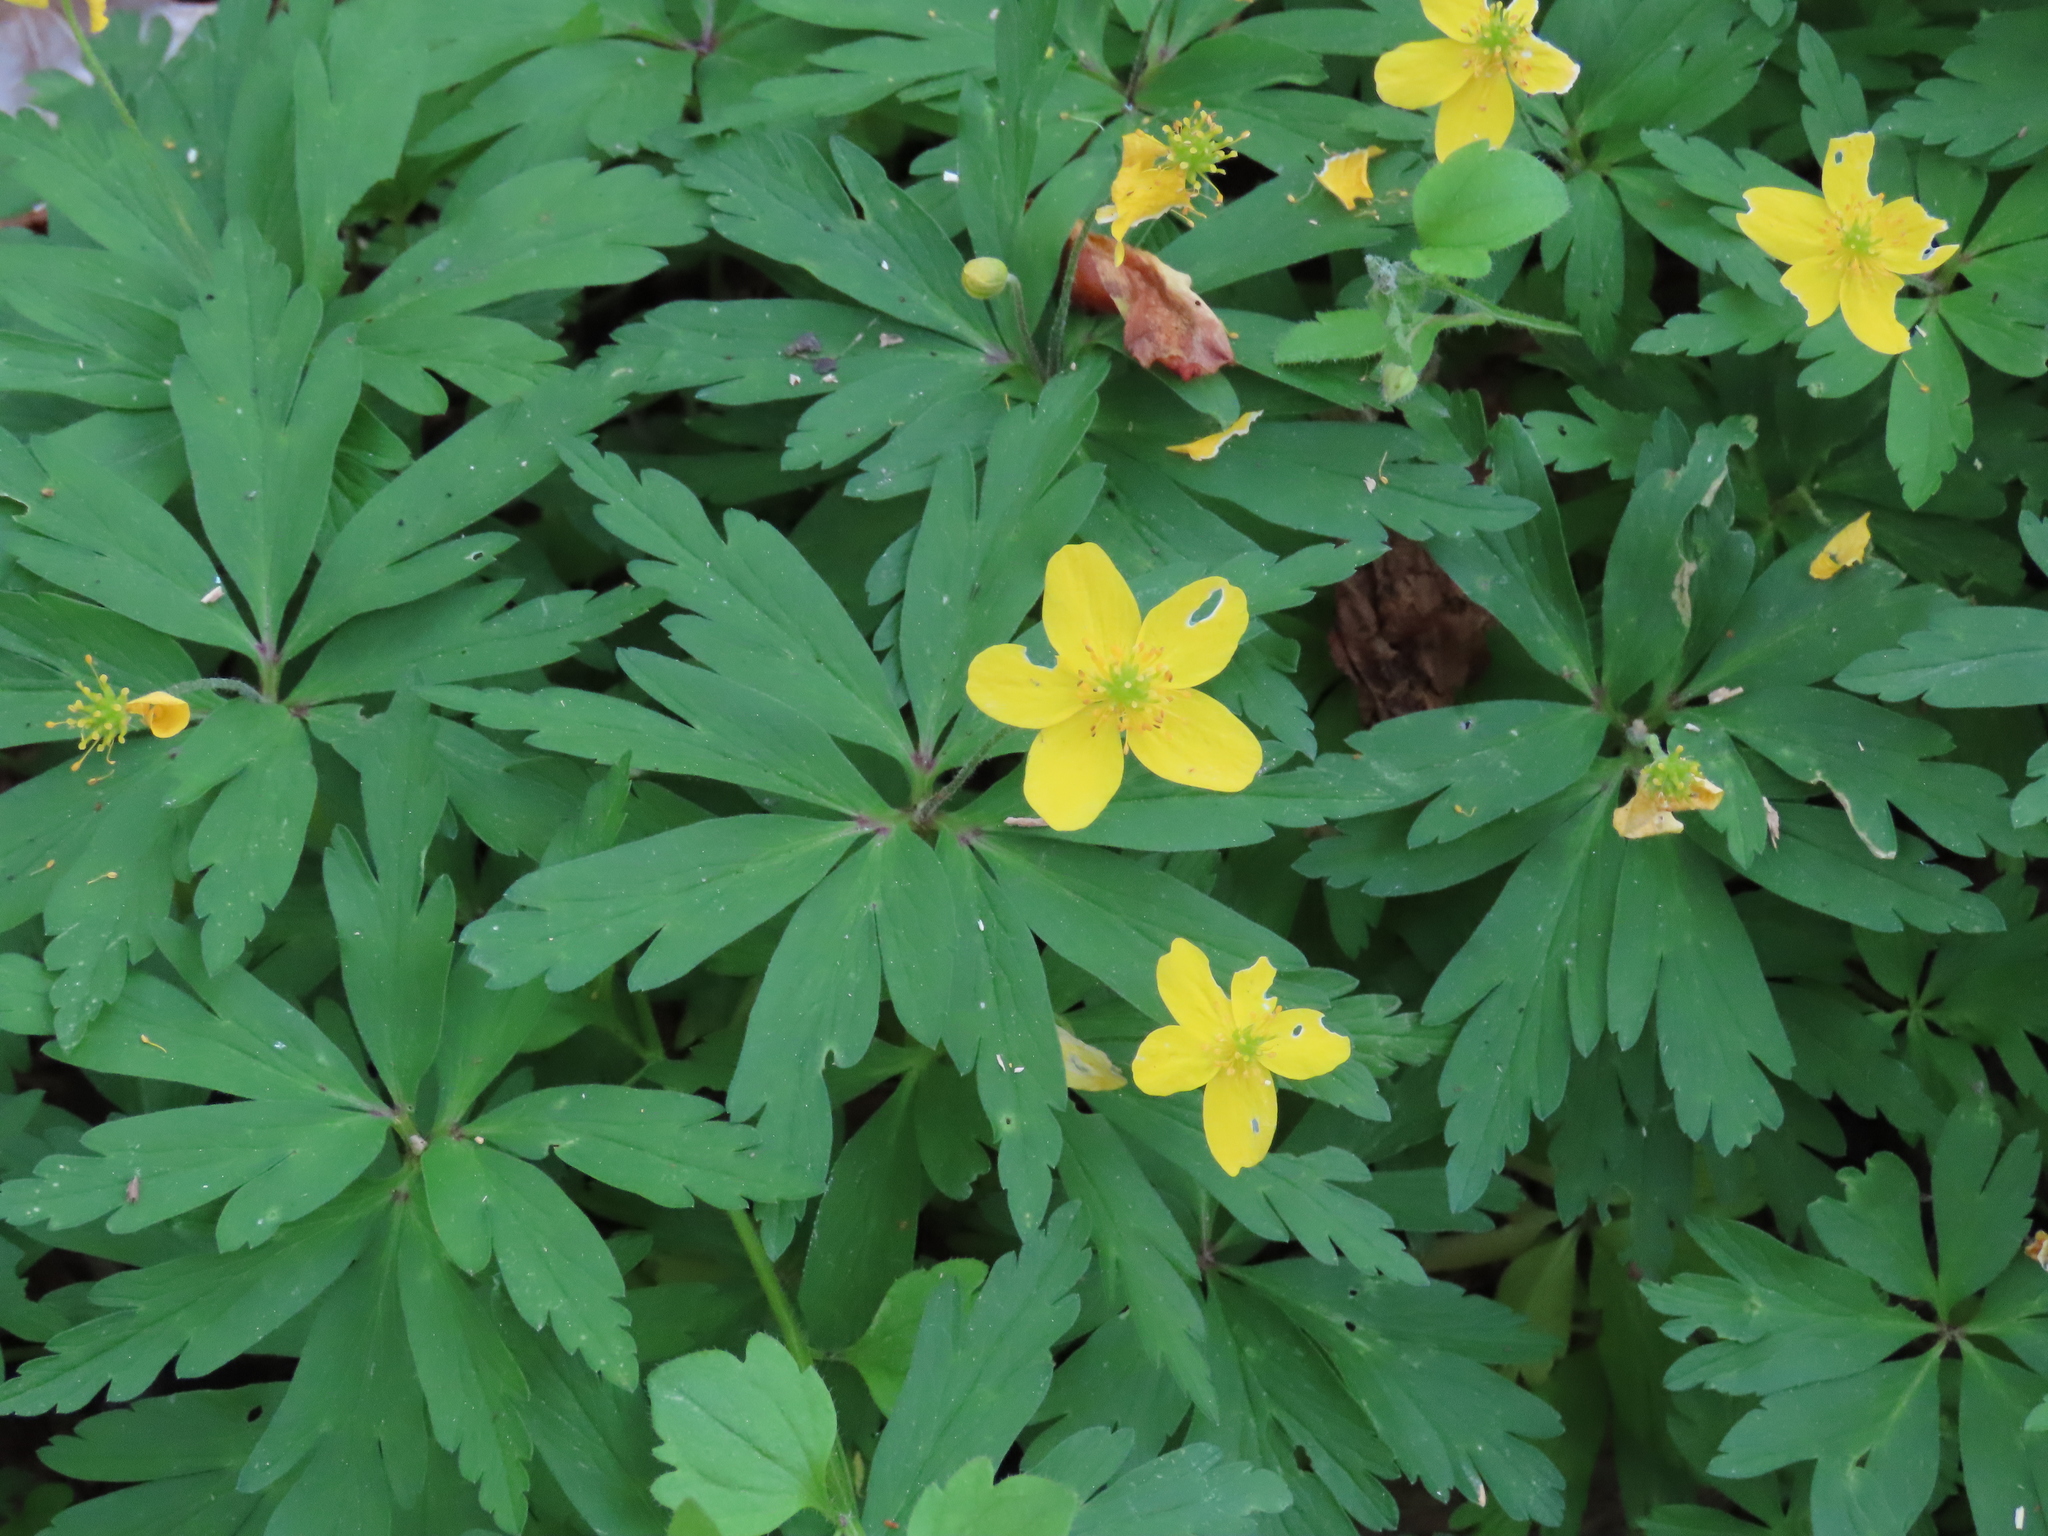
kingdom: Plantae
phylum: Tracheophyta
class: Magnoliopsida
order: Ranunculales
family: Ranunculaceae
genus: Anemone
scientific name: Anemone ranunculoides
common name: Yellow anemone
